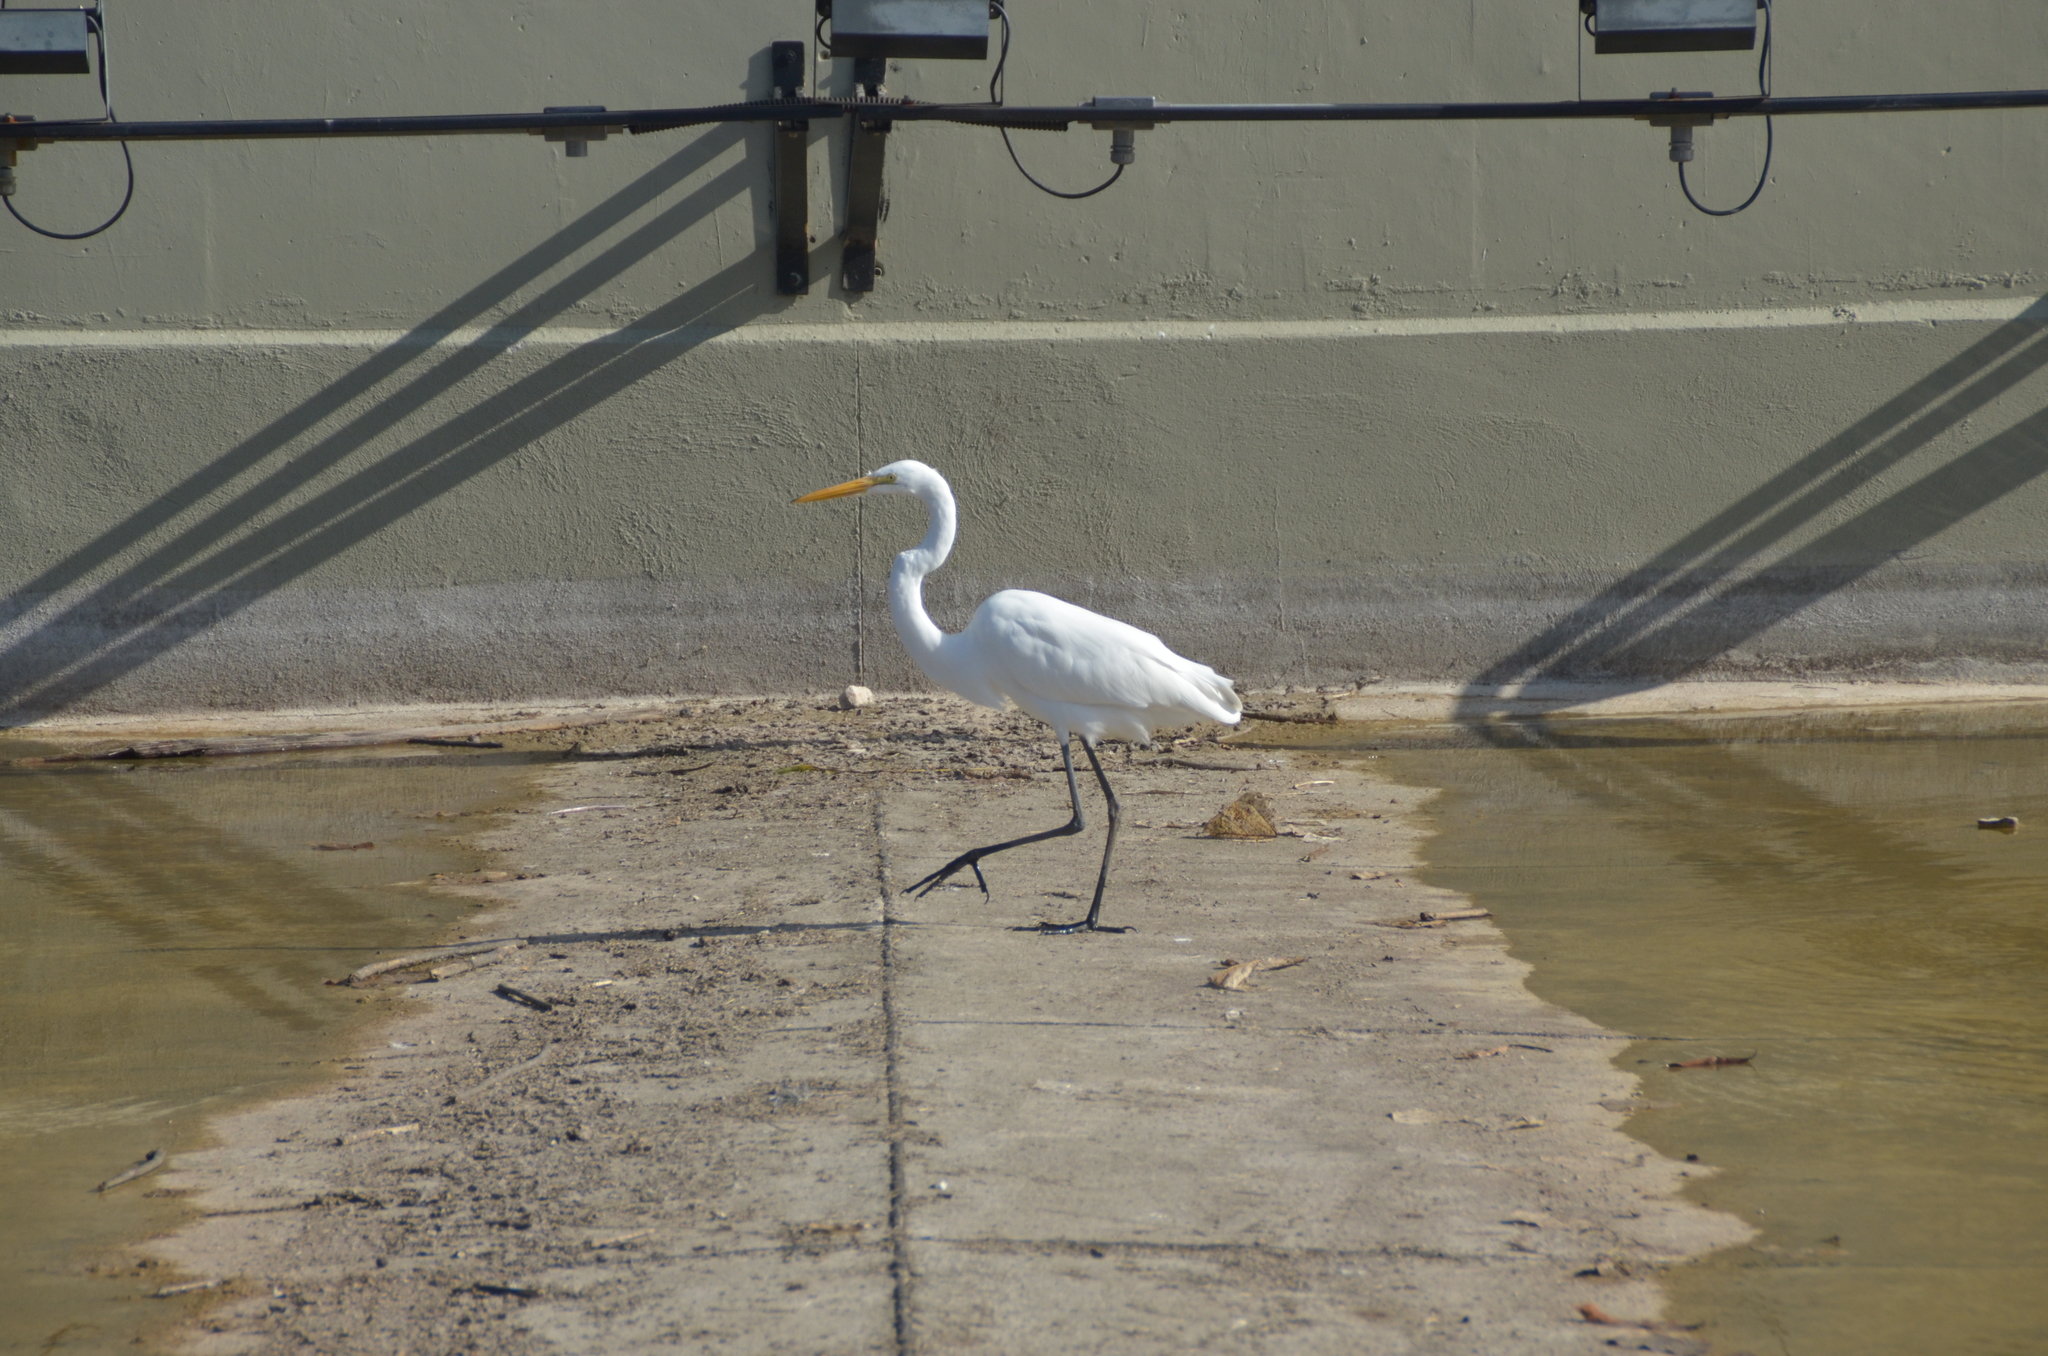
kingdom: Animalia
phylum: Chordata
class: Aves
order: Pelecaniformes
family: Ardeidae
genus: Ardea
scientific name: Ardea alba
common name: Great egret
